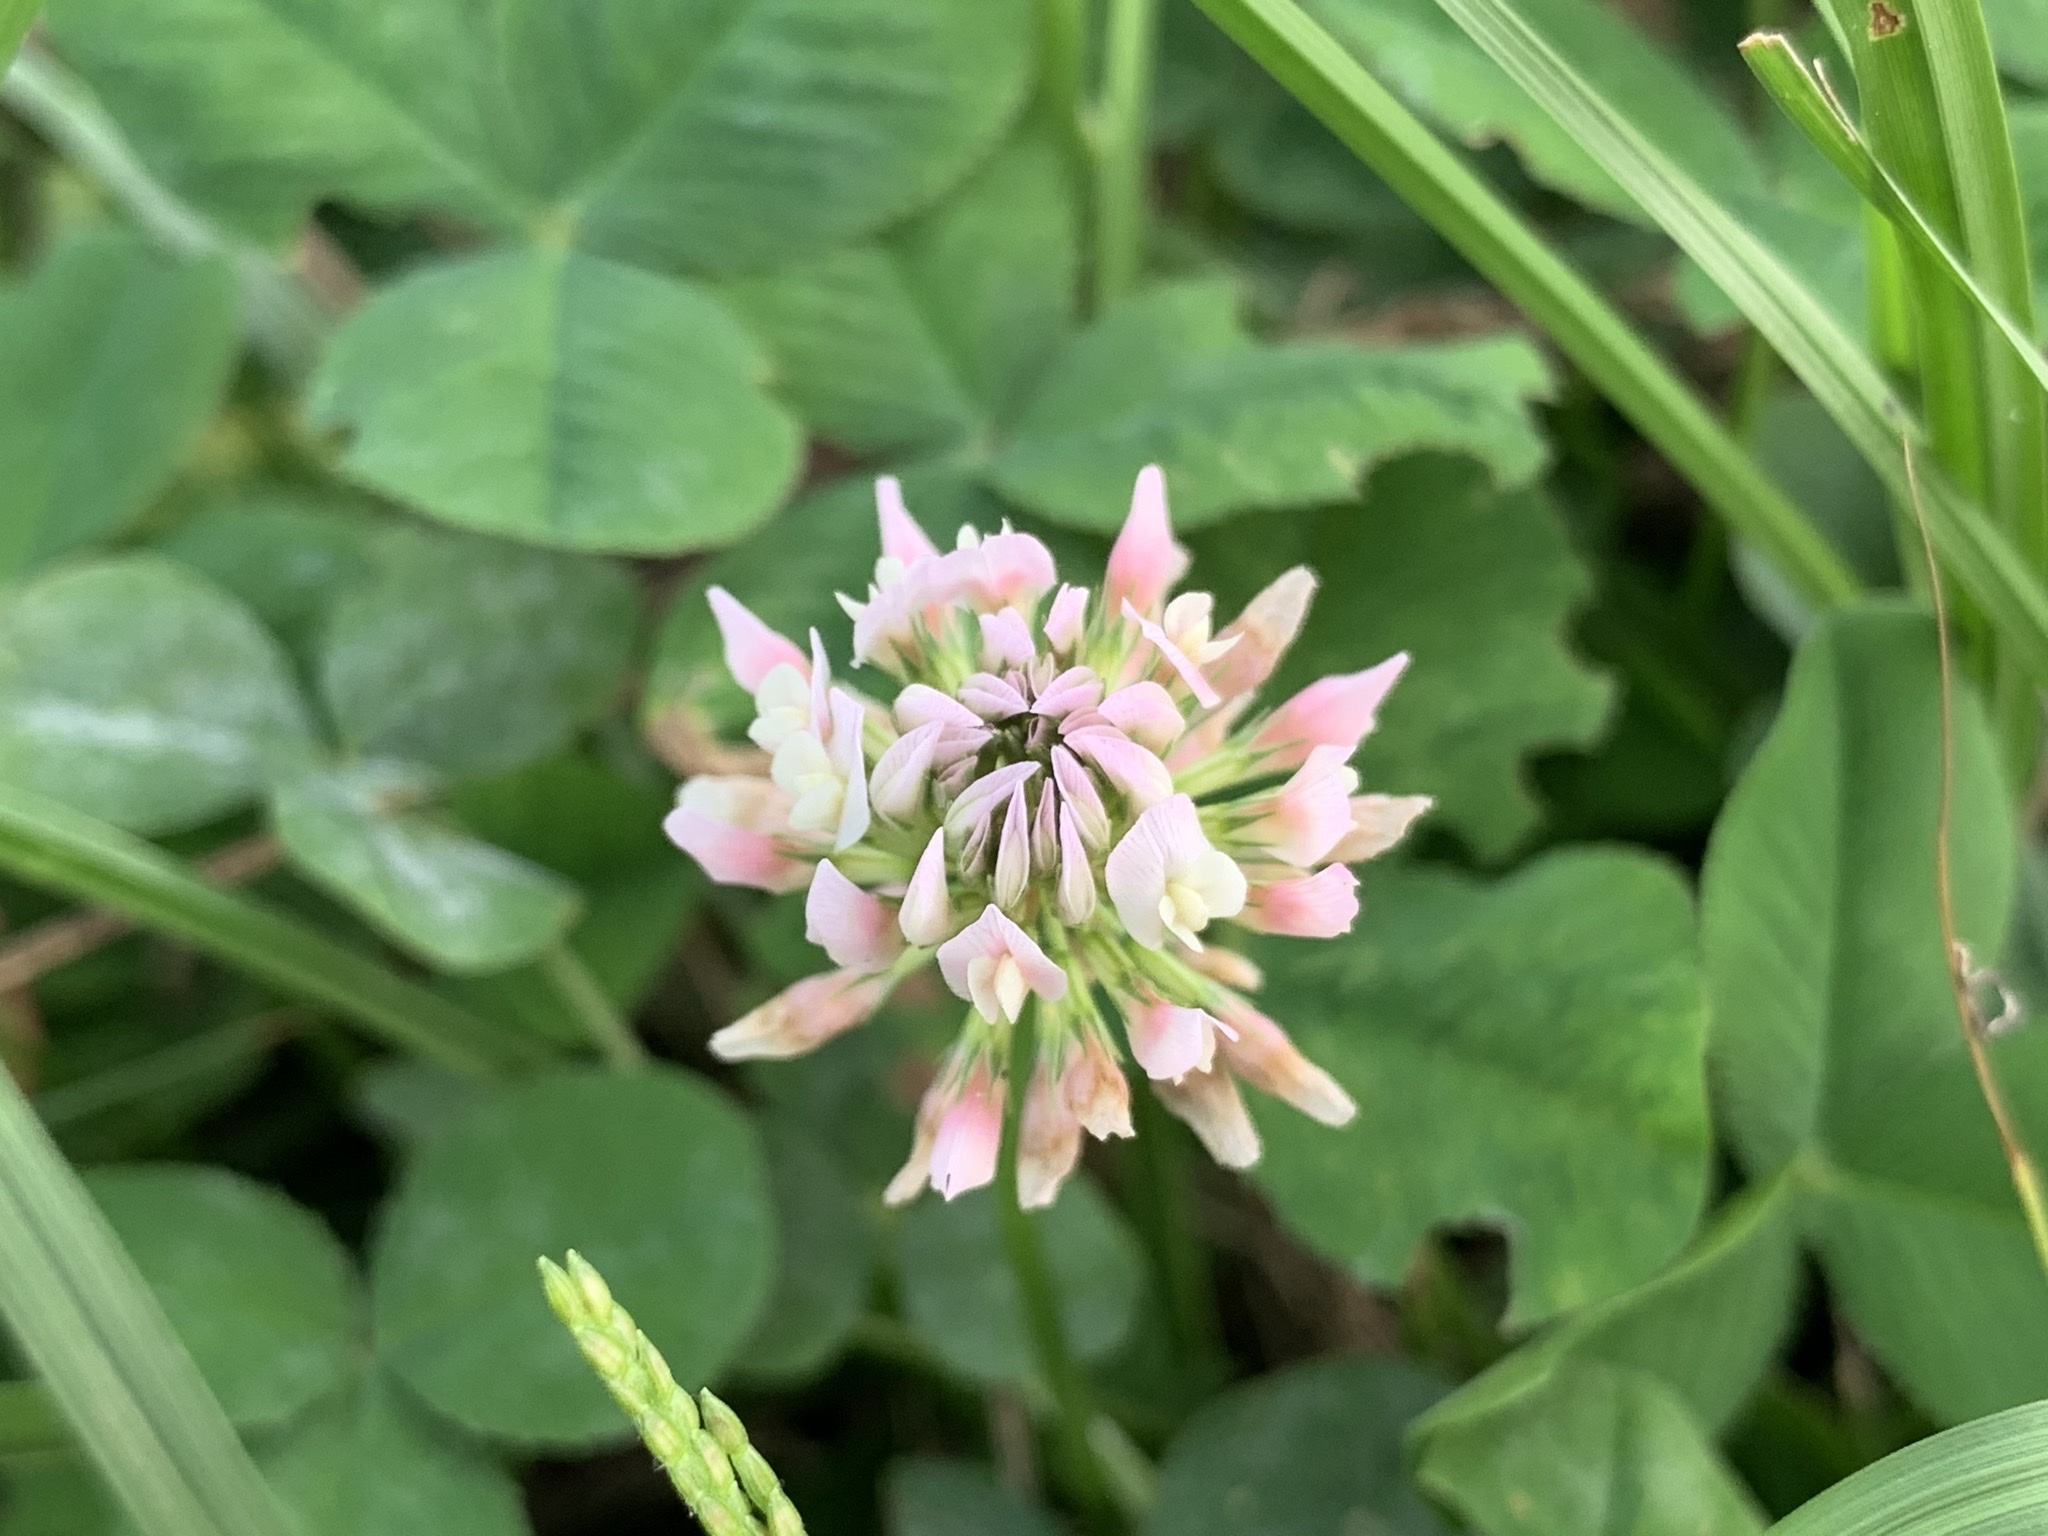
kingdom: Plantae
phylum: Tracheophyta
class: Magnoliopsida
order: Fabales
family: Fabaceae
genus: Trifolium
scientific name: Trifolium repens
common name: White clover
